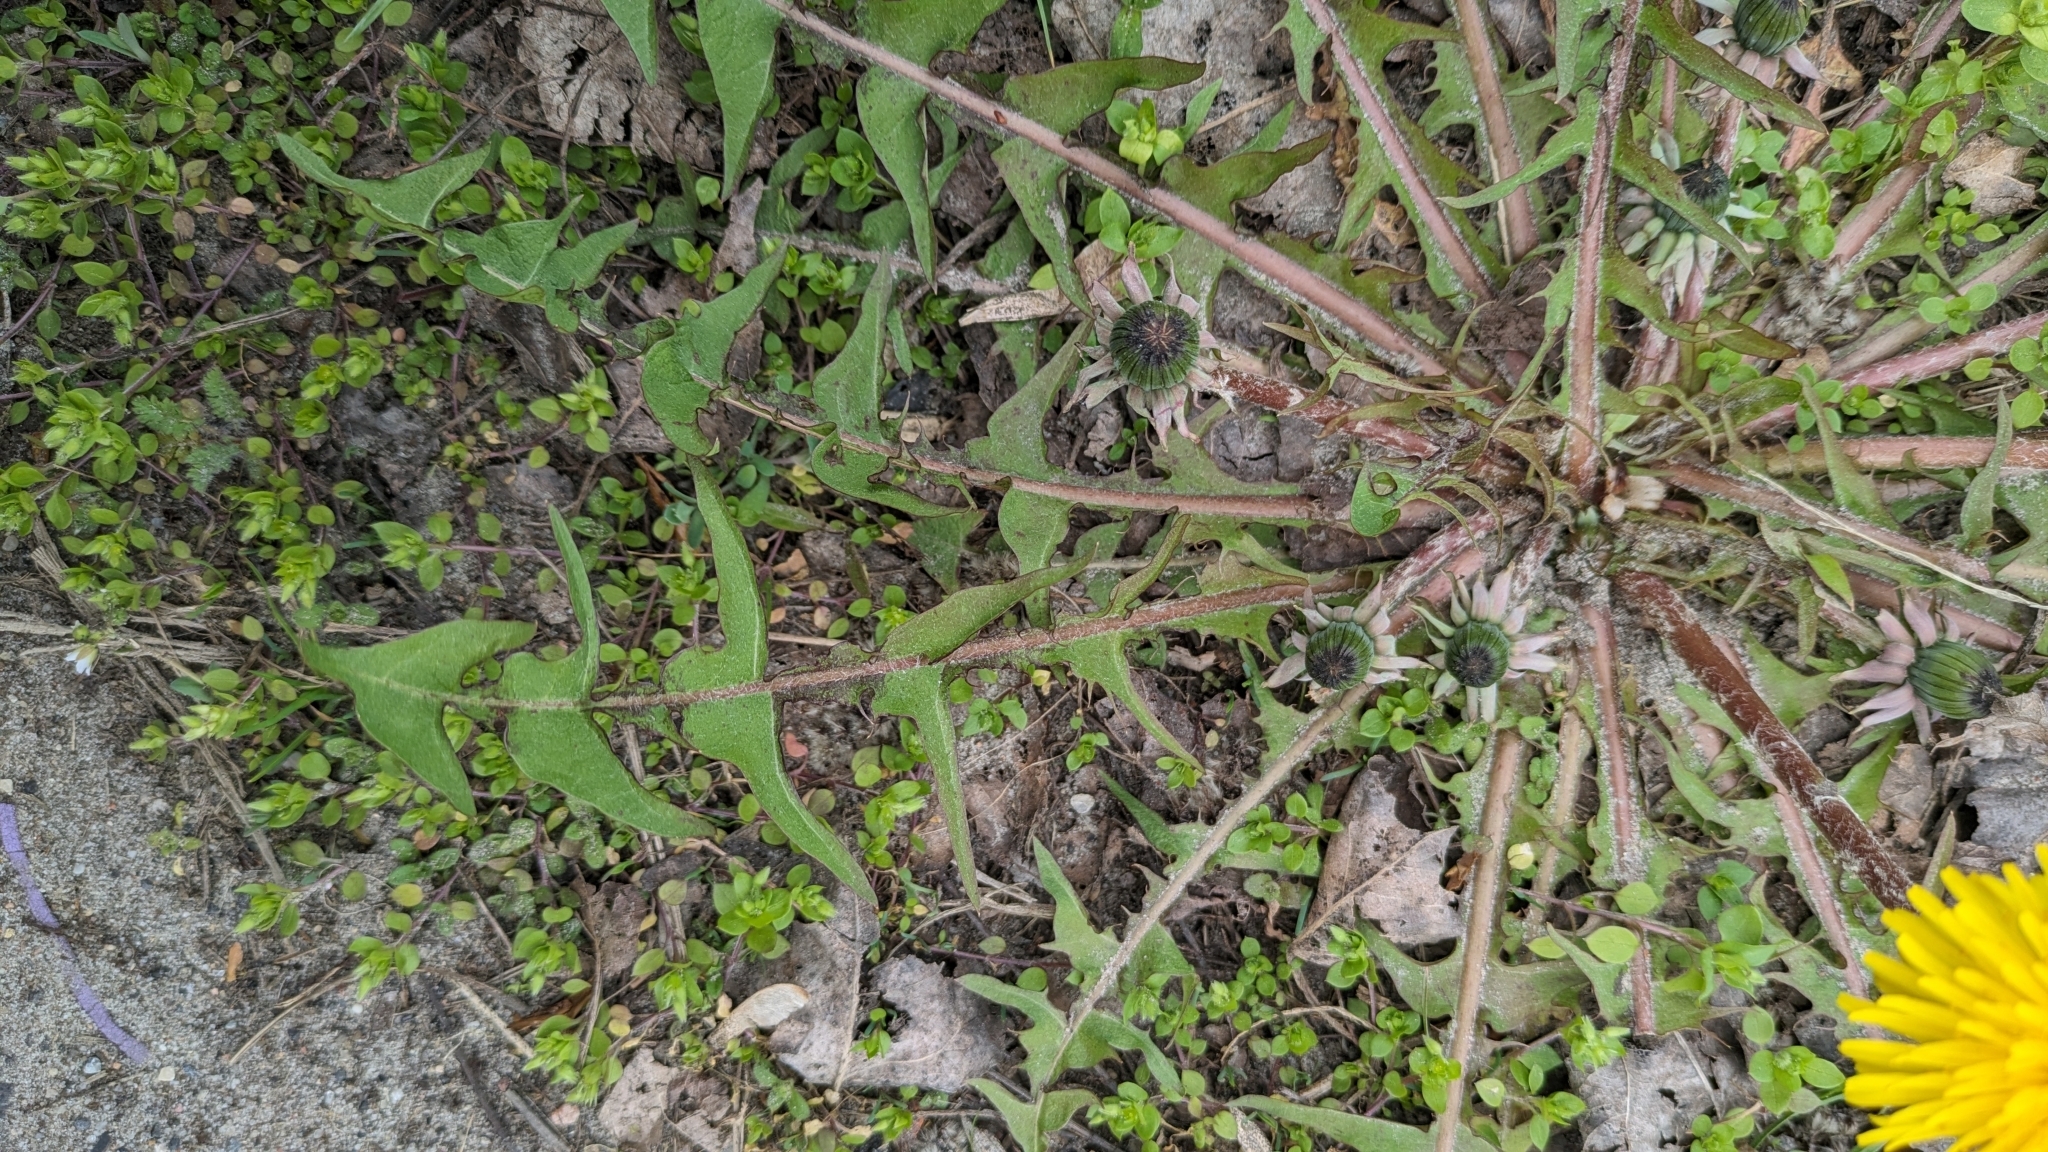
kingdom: Plantae
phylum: Tracheophyta
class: Magnoliopsida
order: Asterales
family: Asteraceae
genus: Taraxacum
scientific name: Taraxacum officinale
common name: Common dandelion
